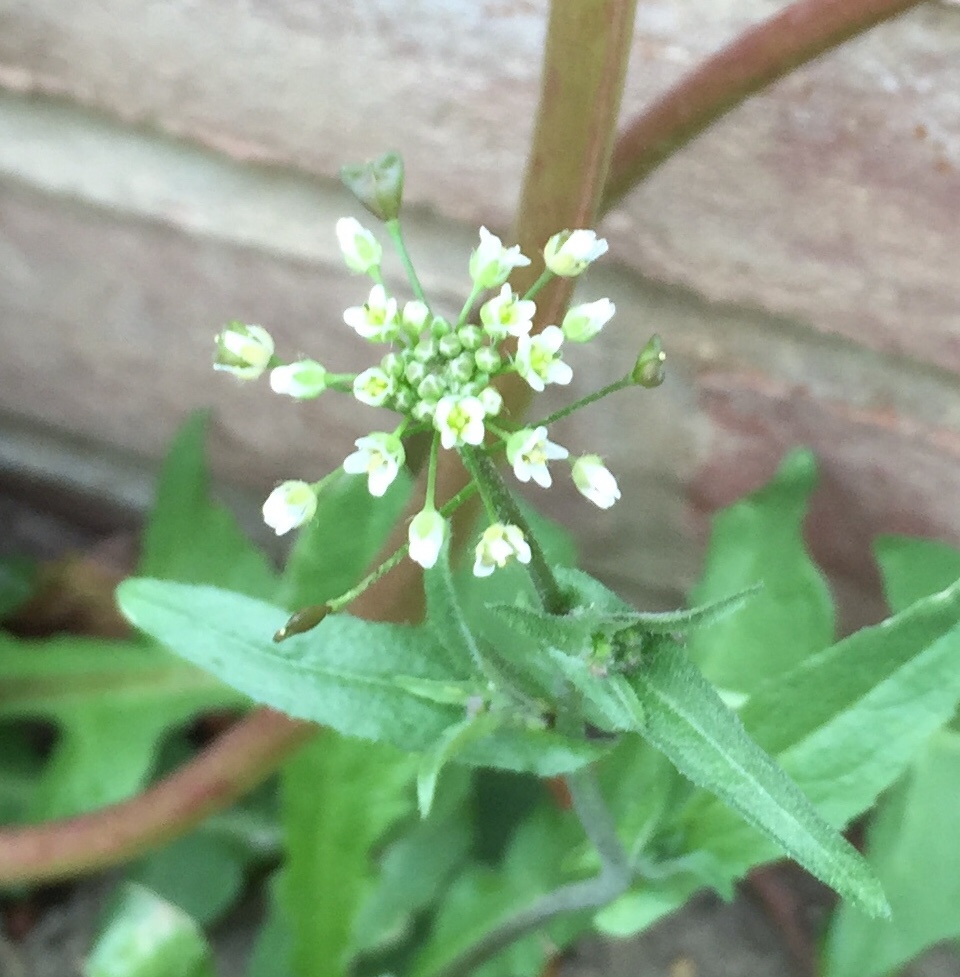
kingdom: Plantae
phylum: Tracheophyta
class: Magnoliopsida
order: Brassicales
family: Brassicaceae
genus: Capsella
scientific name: Capsella bursa-pastoris
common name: Shepherd's purse
